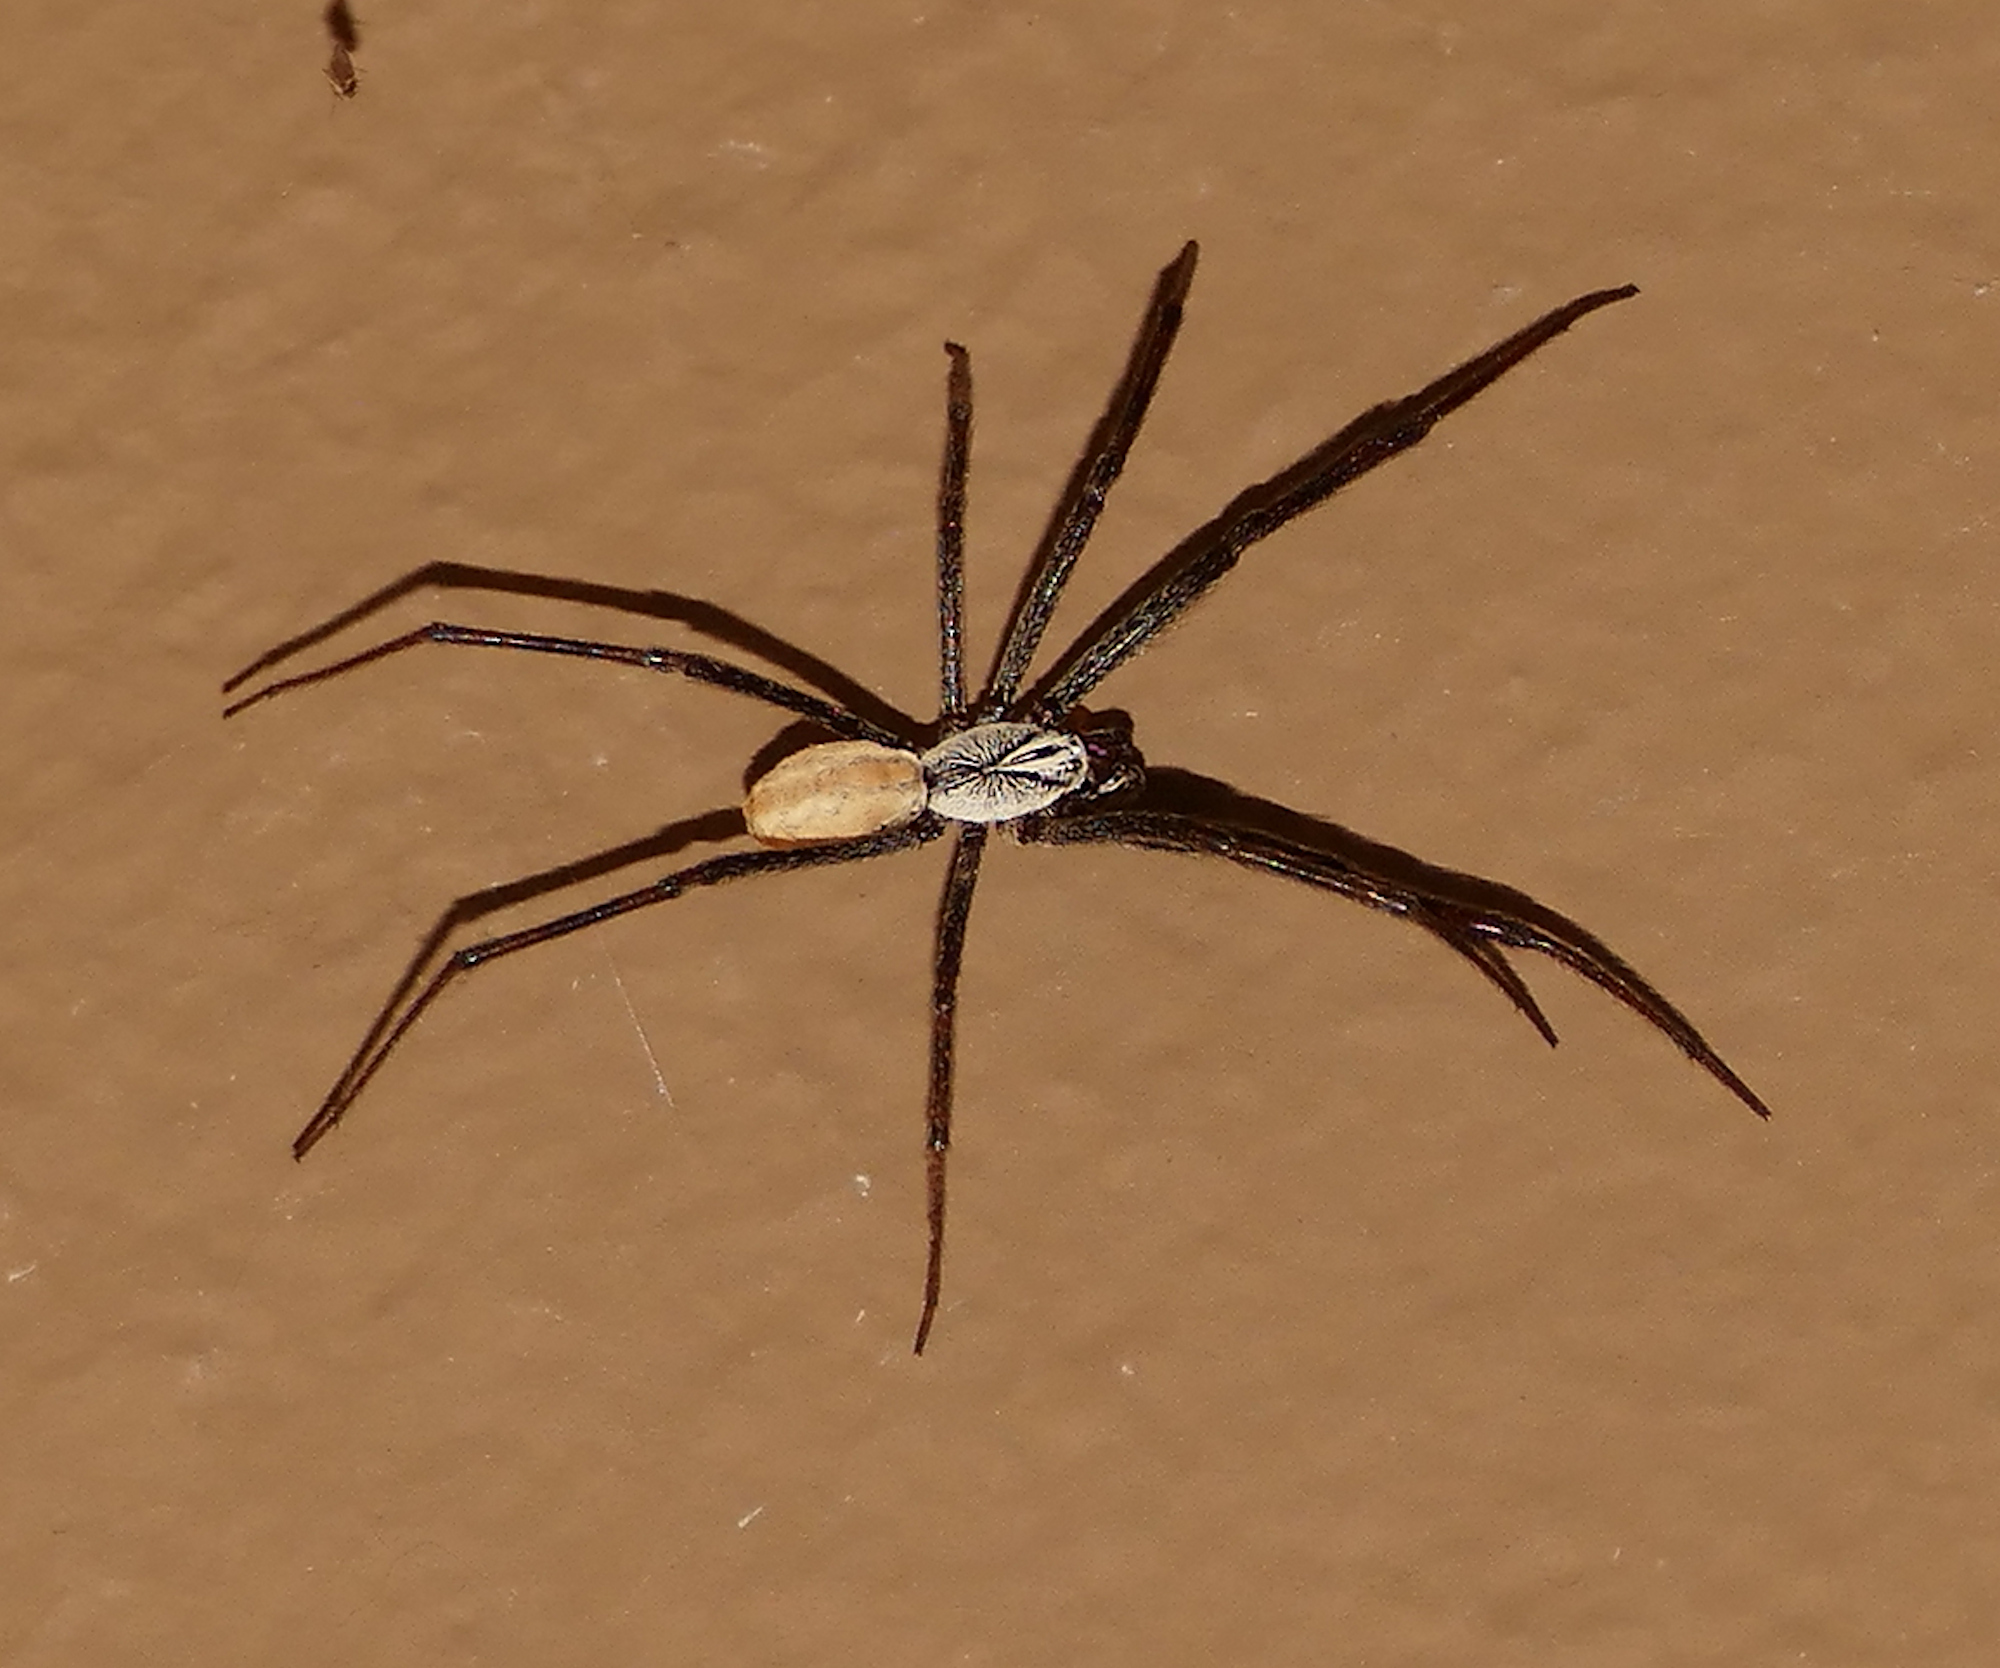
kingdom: Animalia
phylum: Arthropoda
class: Arachnida
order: Araneae
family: Diguetidae
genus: Diguetia
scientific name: Diguetia imperiosa
